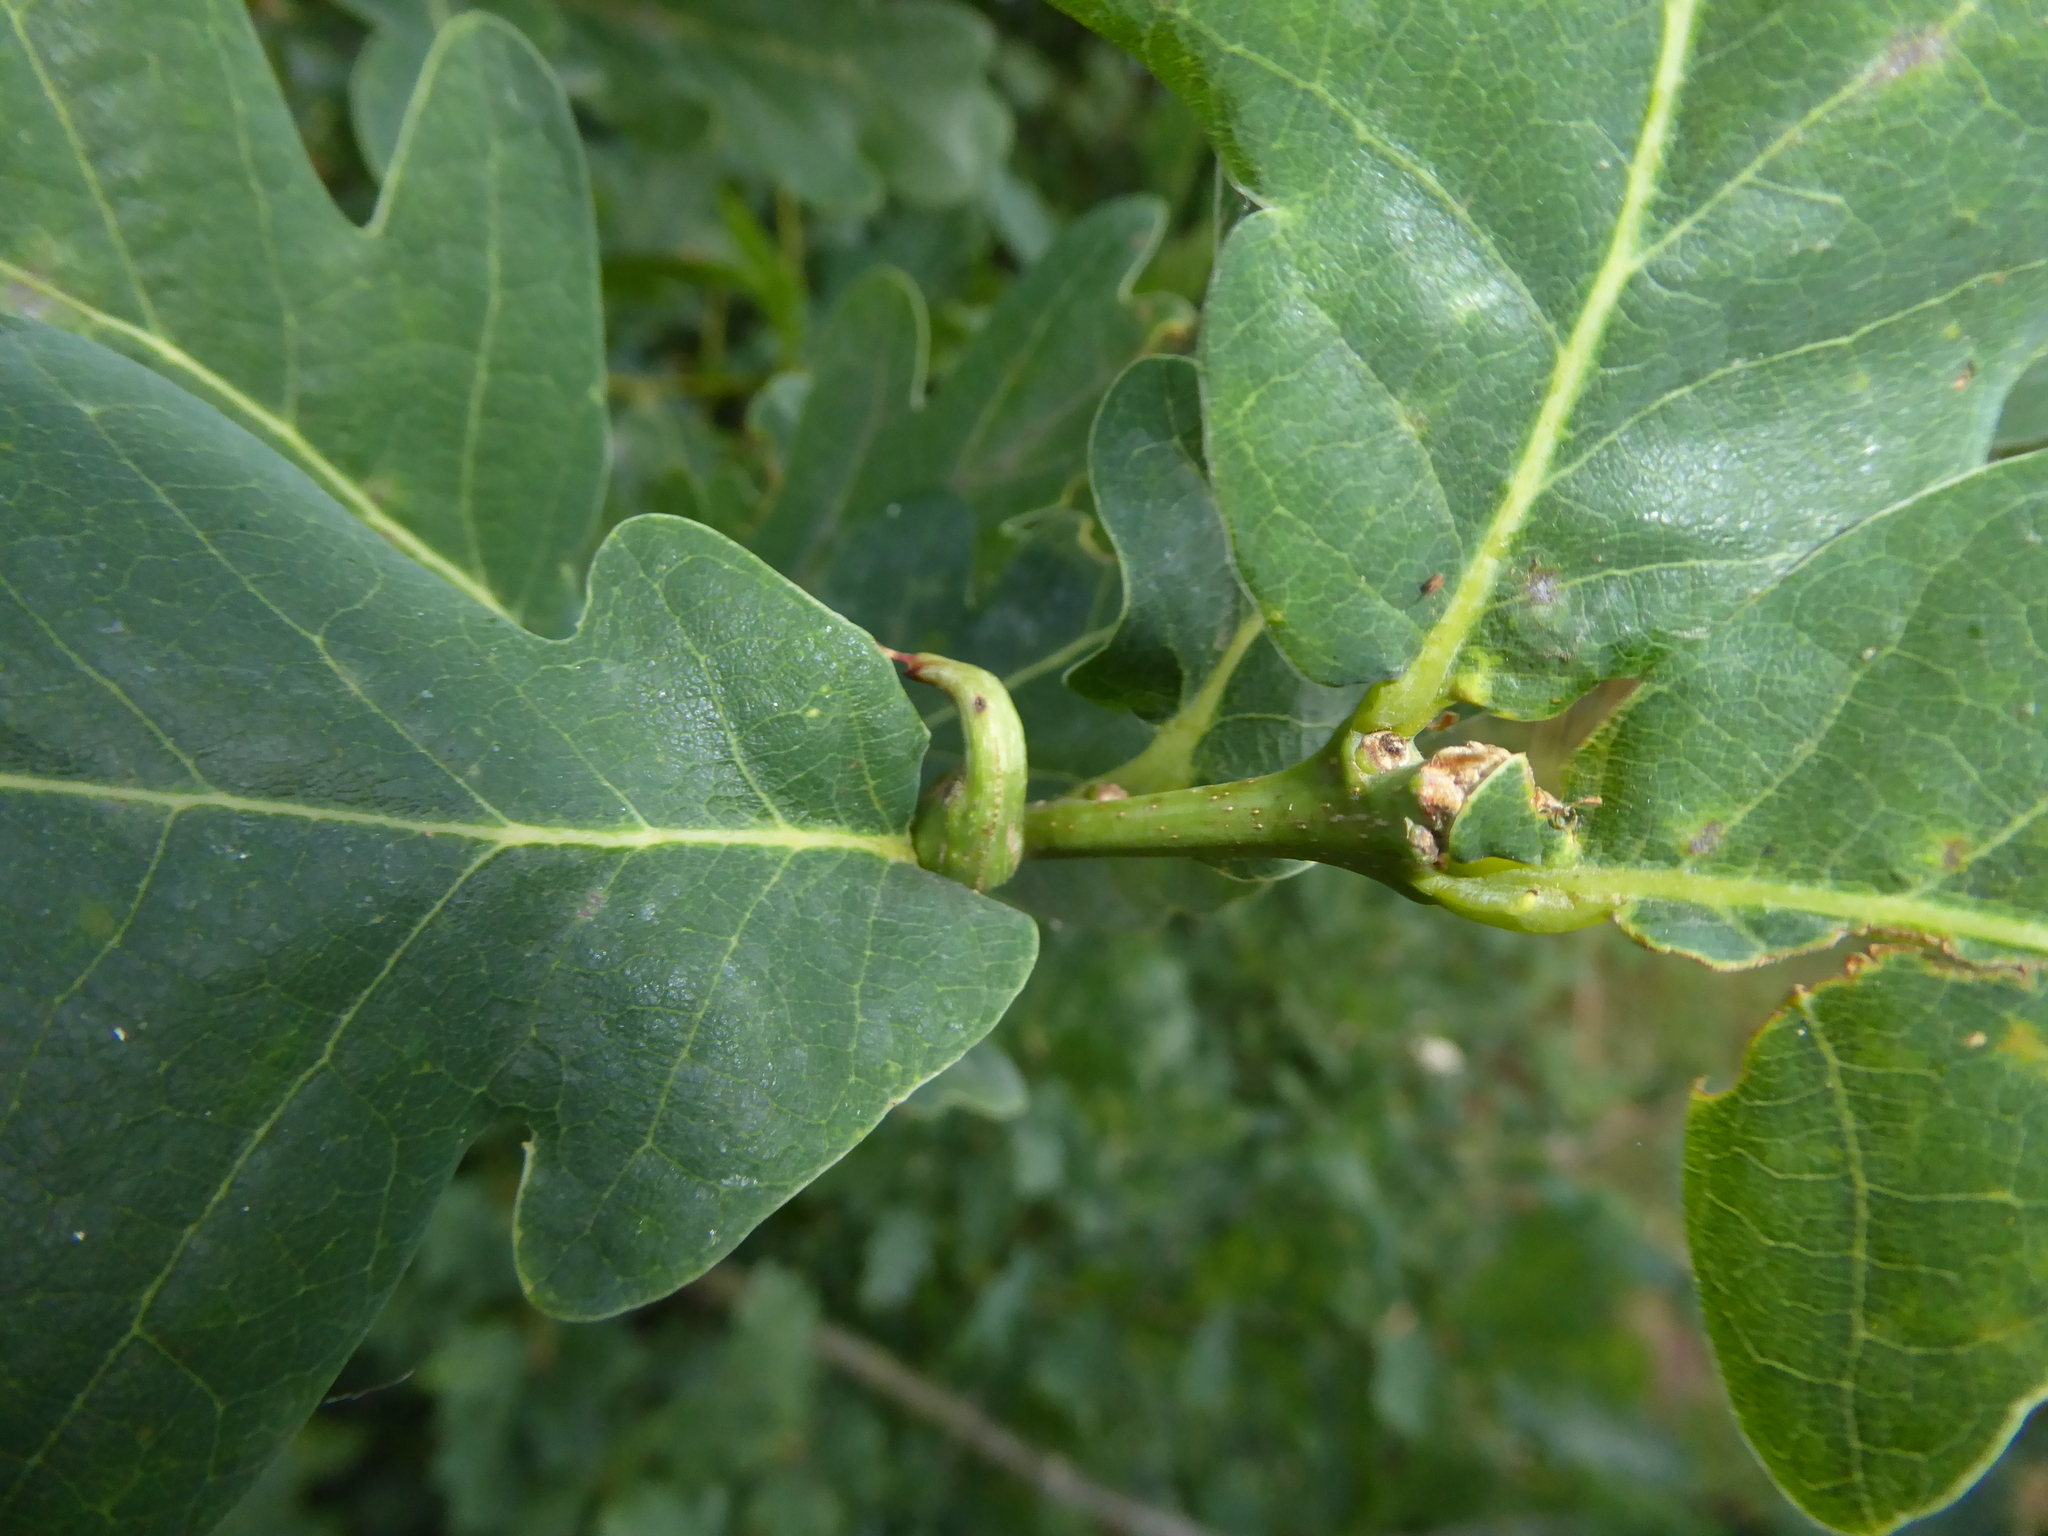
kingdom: Animalia
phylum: Arthropoda
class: Insecta
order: Hymenoptera
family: Cynipidae
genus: Andricus
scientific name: Andricus aries
